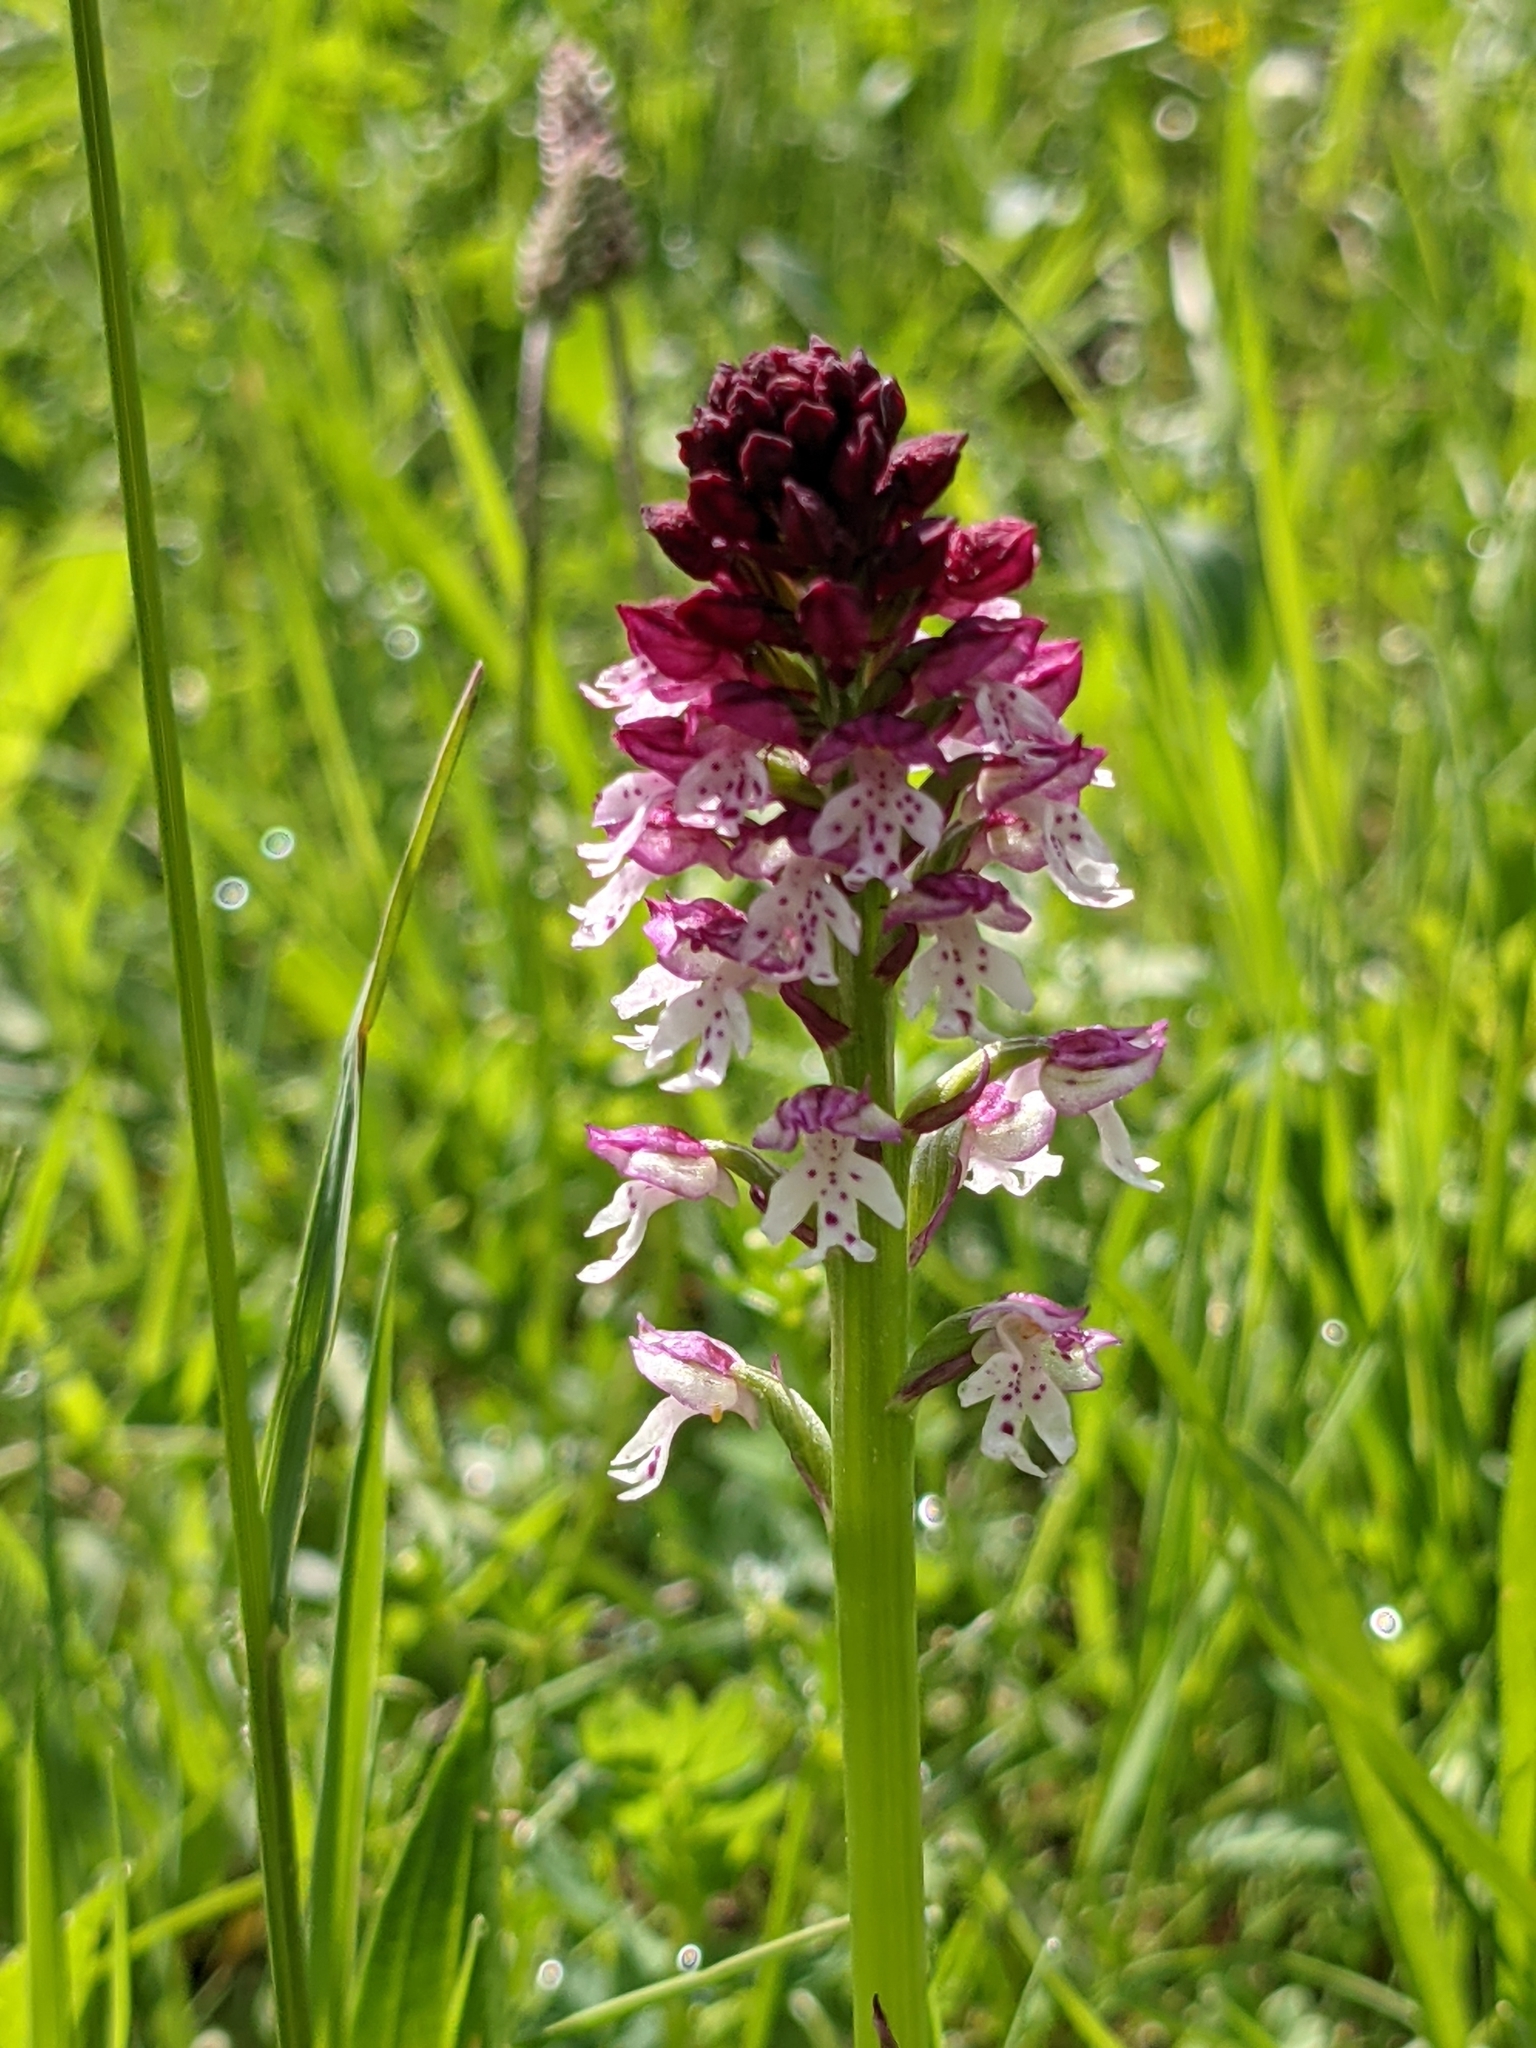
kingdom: Plantae
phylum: Tracheophyta
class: Liliopsida
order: Asparagales
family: Orchidaceae
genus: Neotinea
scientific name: Neotinea ustulata
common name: Burnt orchid
